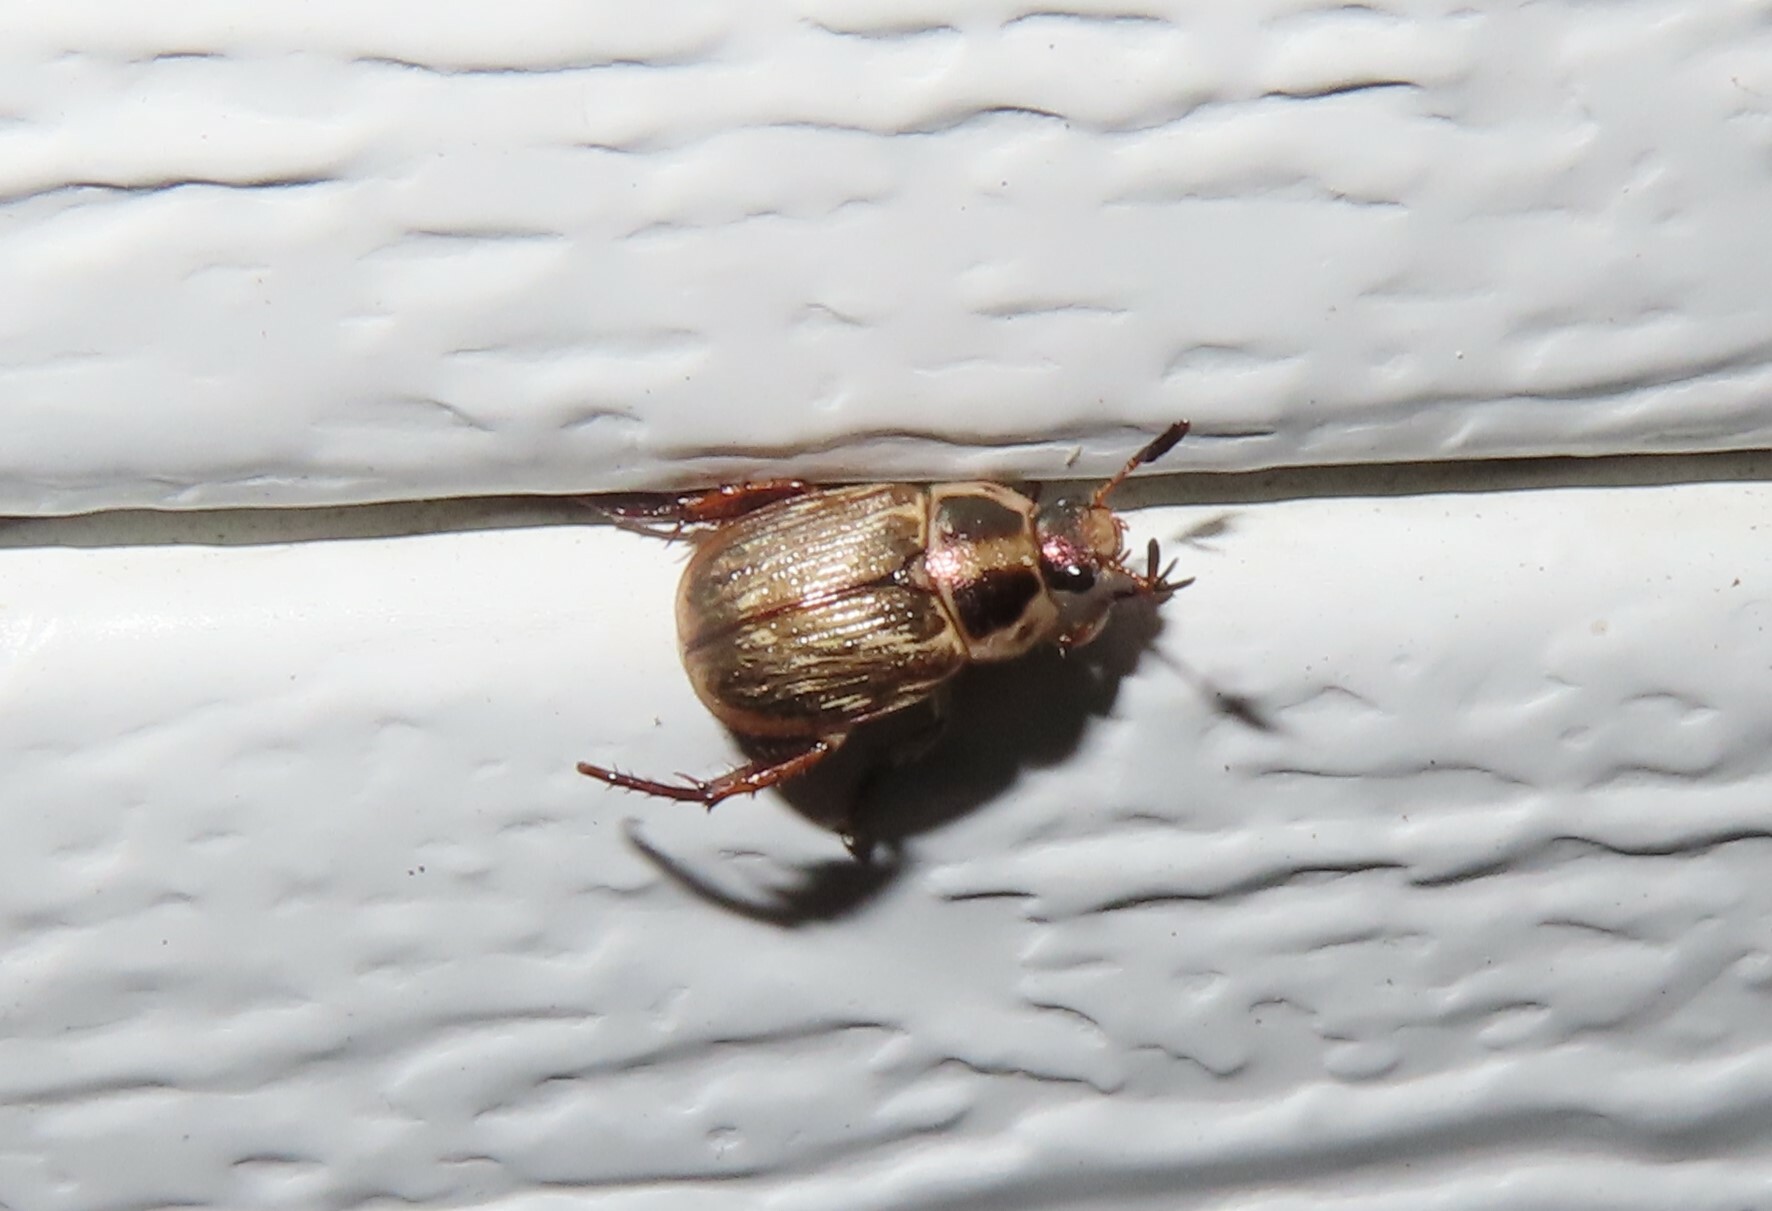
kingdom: Animalia
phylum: Arthropoda
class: Insecta
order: Coleoptera
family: Scarabaeidae
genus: Exomala
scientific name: Exomala orientalis
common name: Oriental beetle
